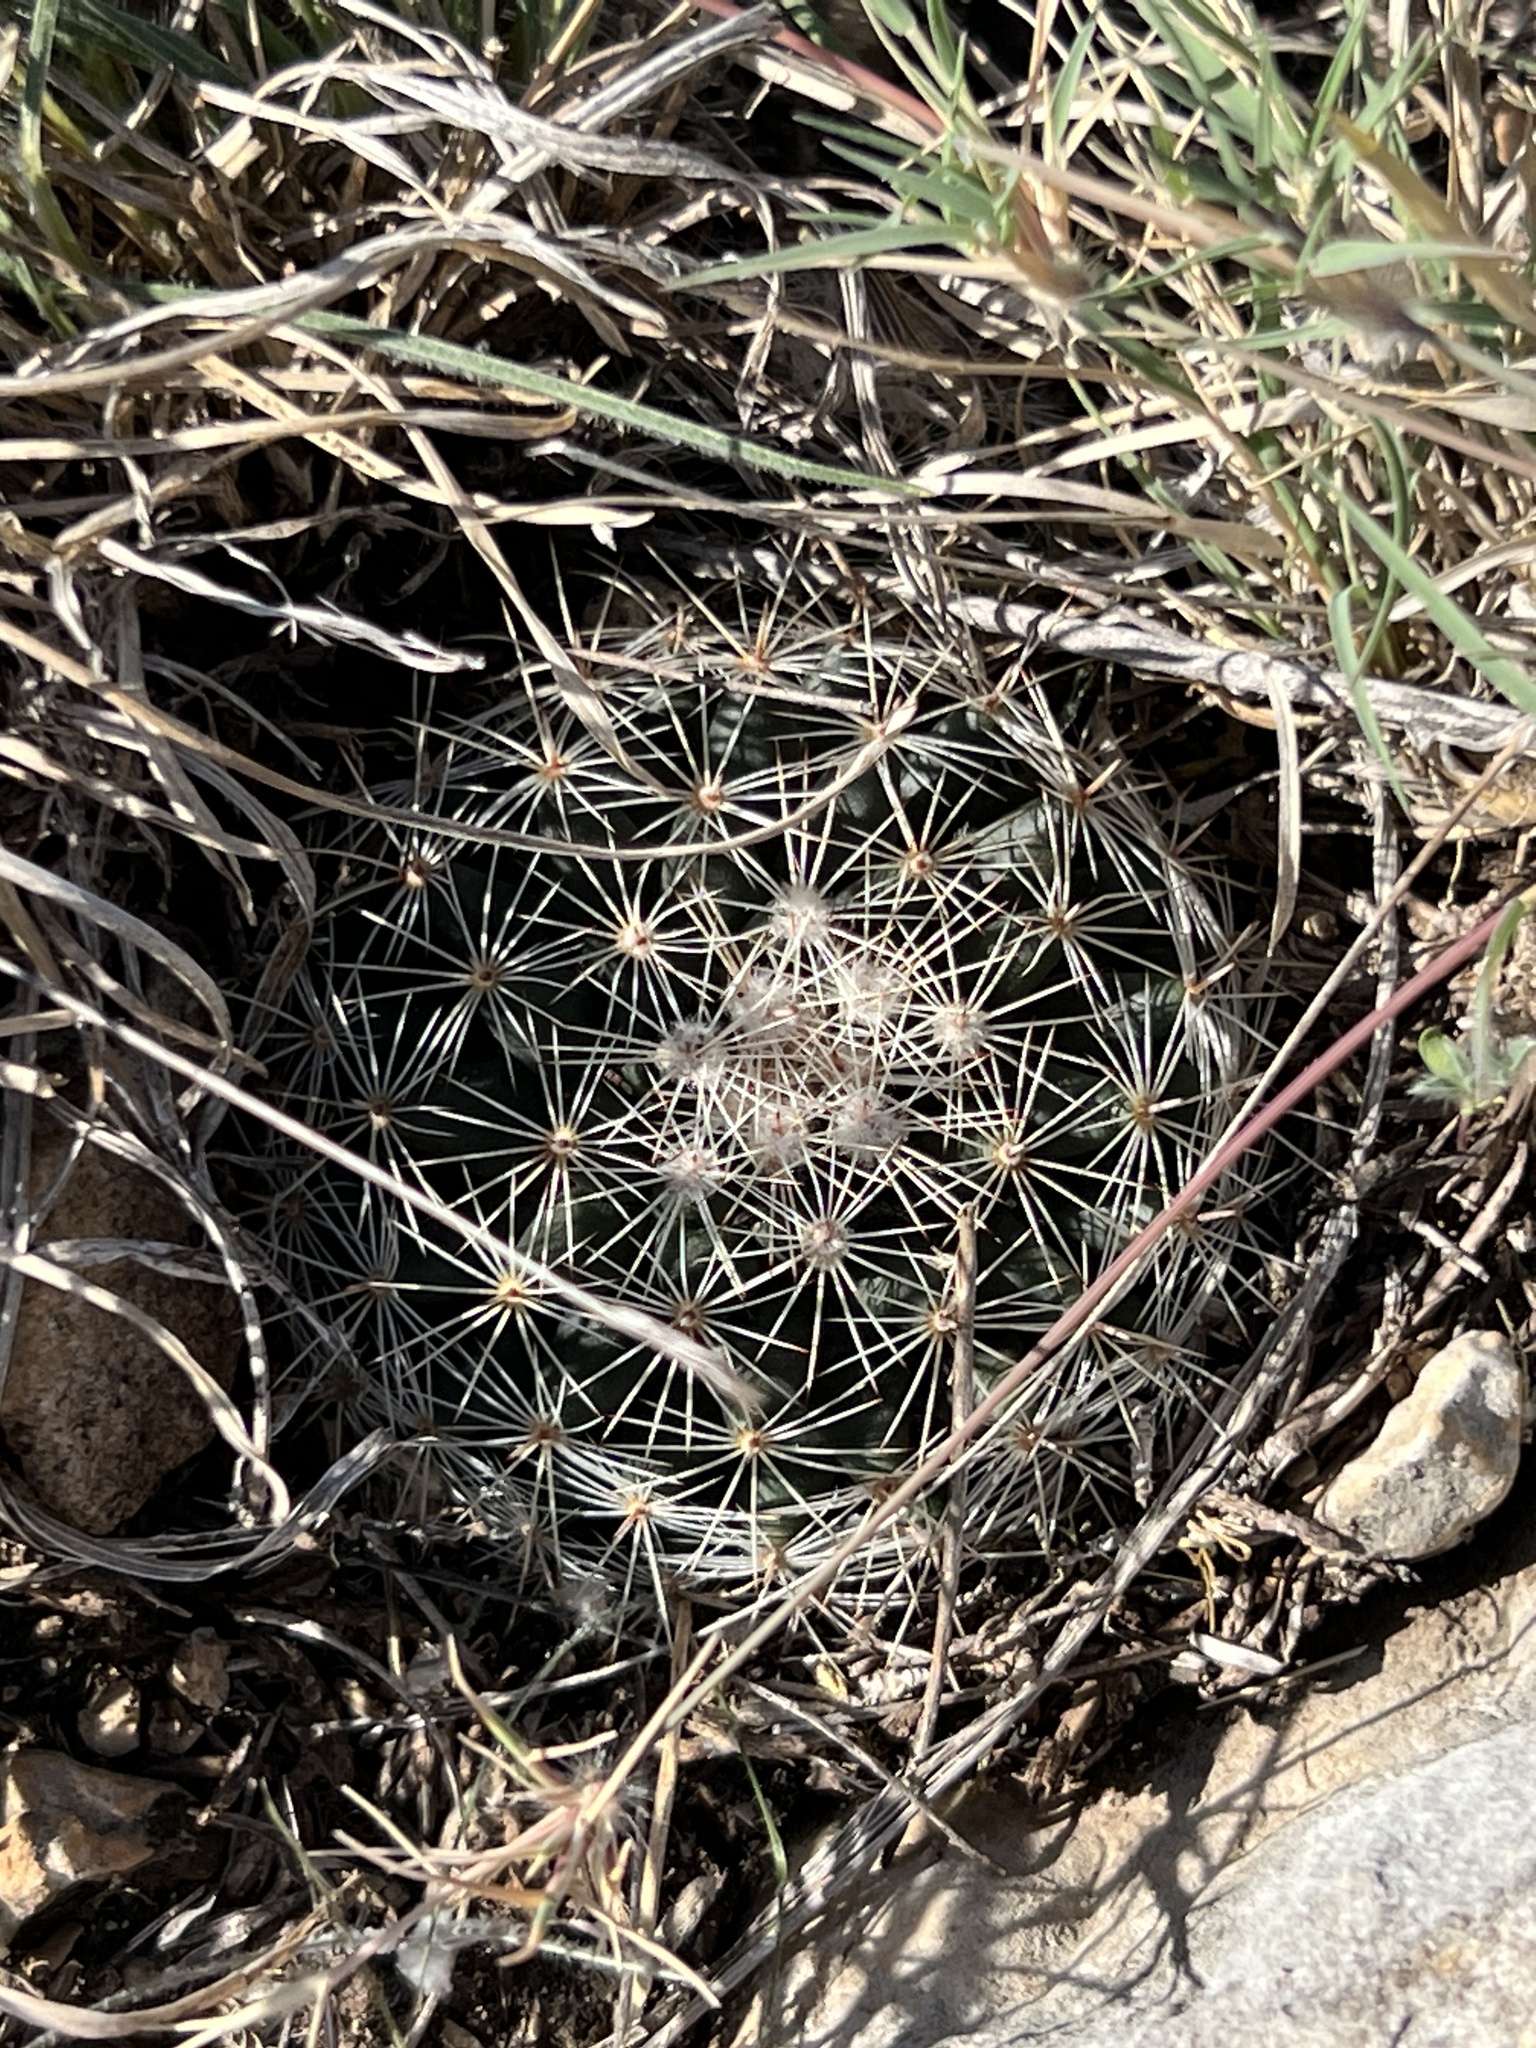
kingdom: Plantae
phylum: Tracheophyta
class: Magnoliopsida
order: Caryophyllales
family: Cactaceae
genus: Mammillaria
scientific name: Mammillaria heyderi
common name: Little nipple cactus
